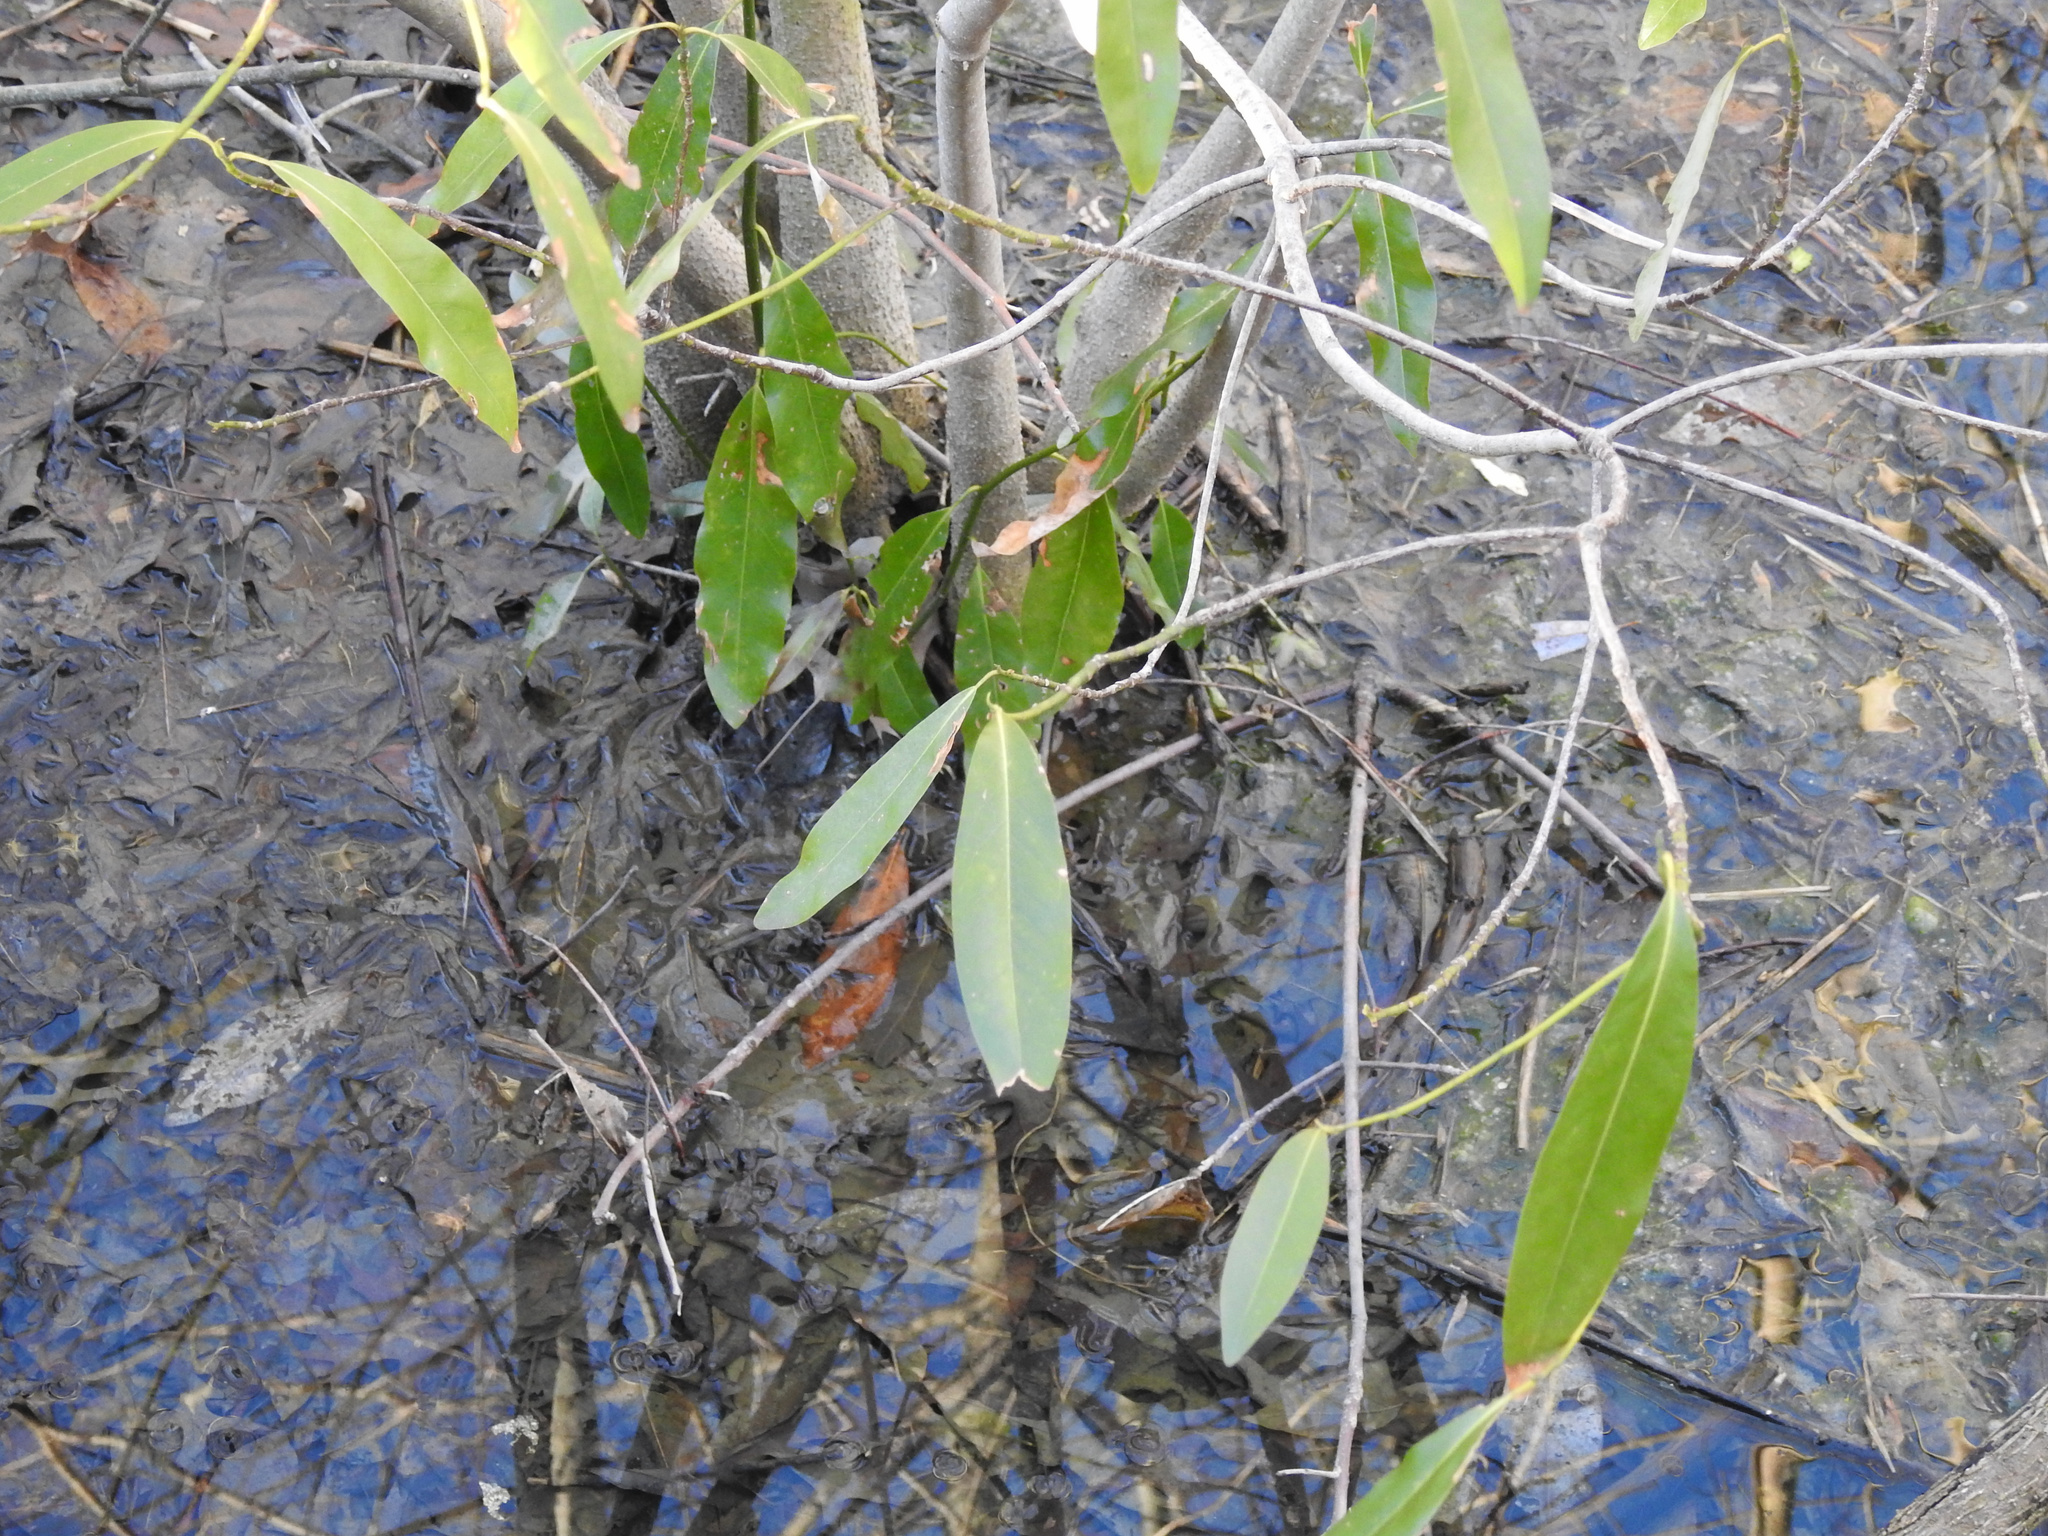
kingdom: Plantae
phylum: Tracheophyta
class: Magnoliopsida
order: Magnoliales
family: Magnoliaceae
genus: Magnolia
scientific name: Magnolia virginiana
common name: Swamp bay
